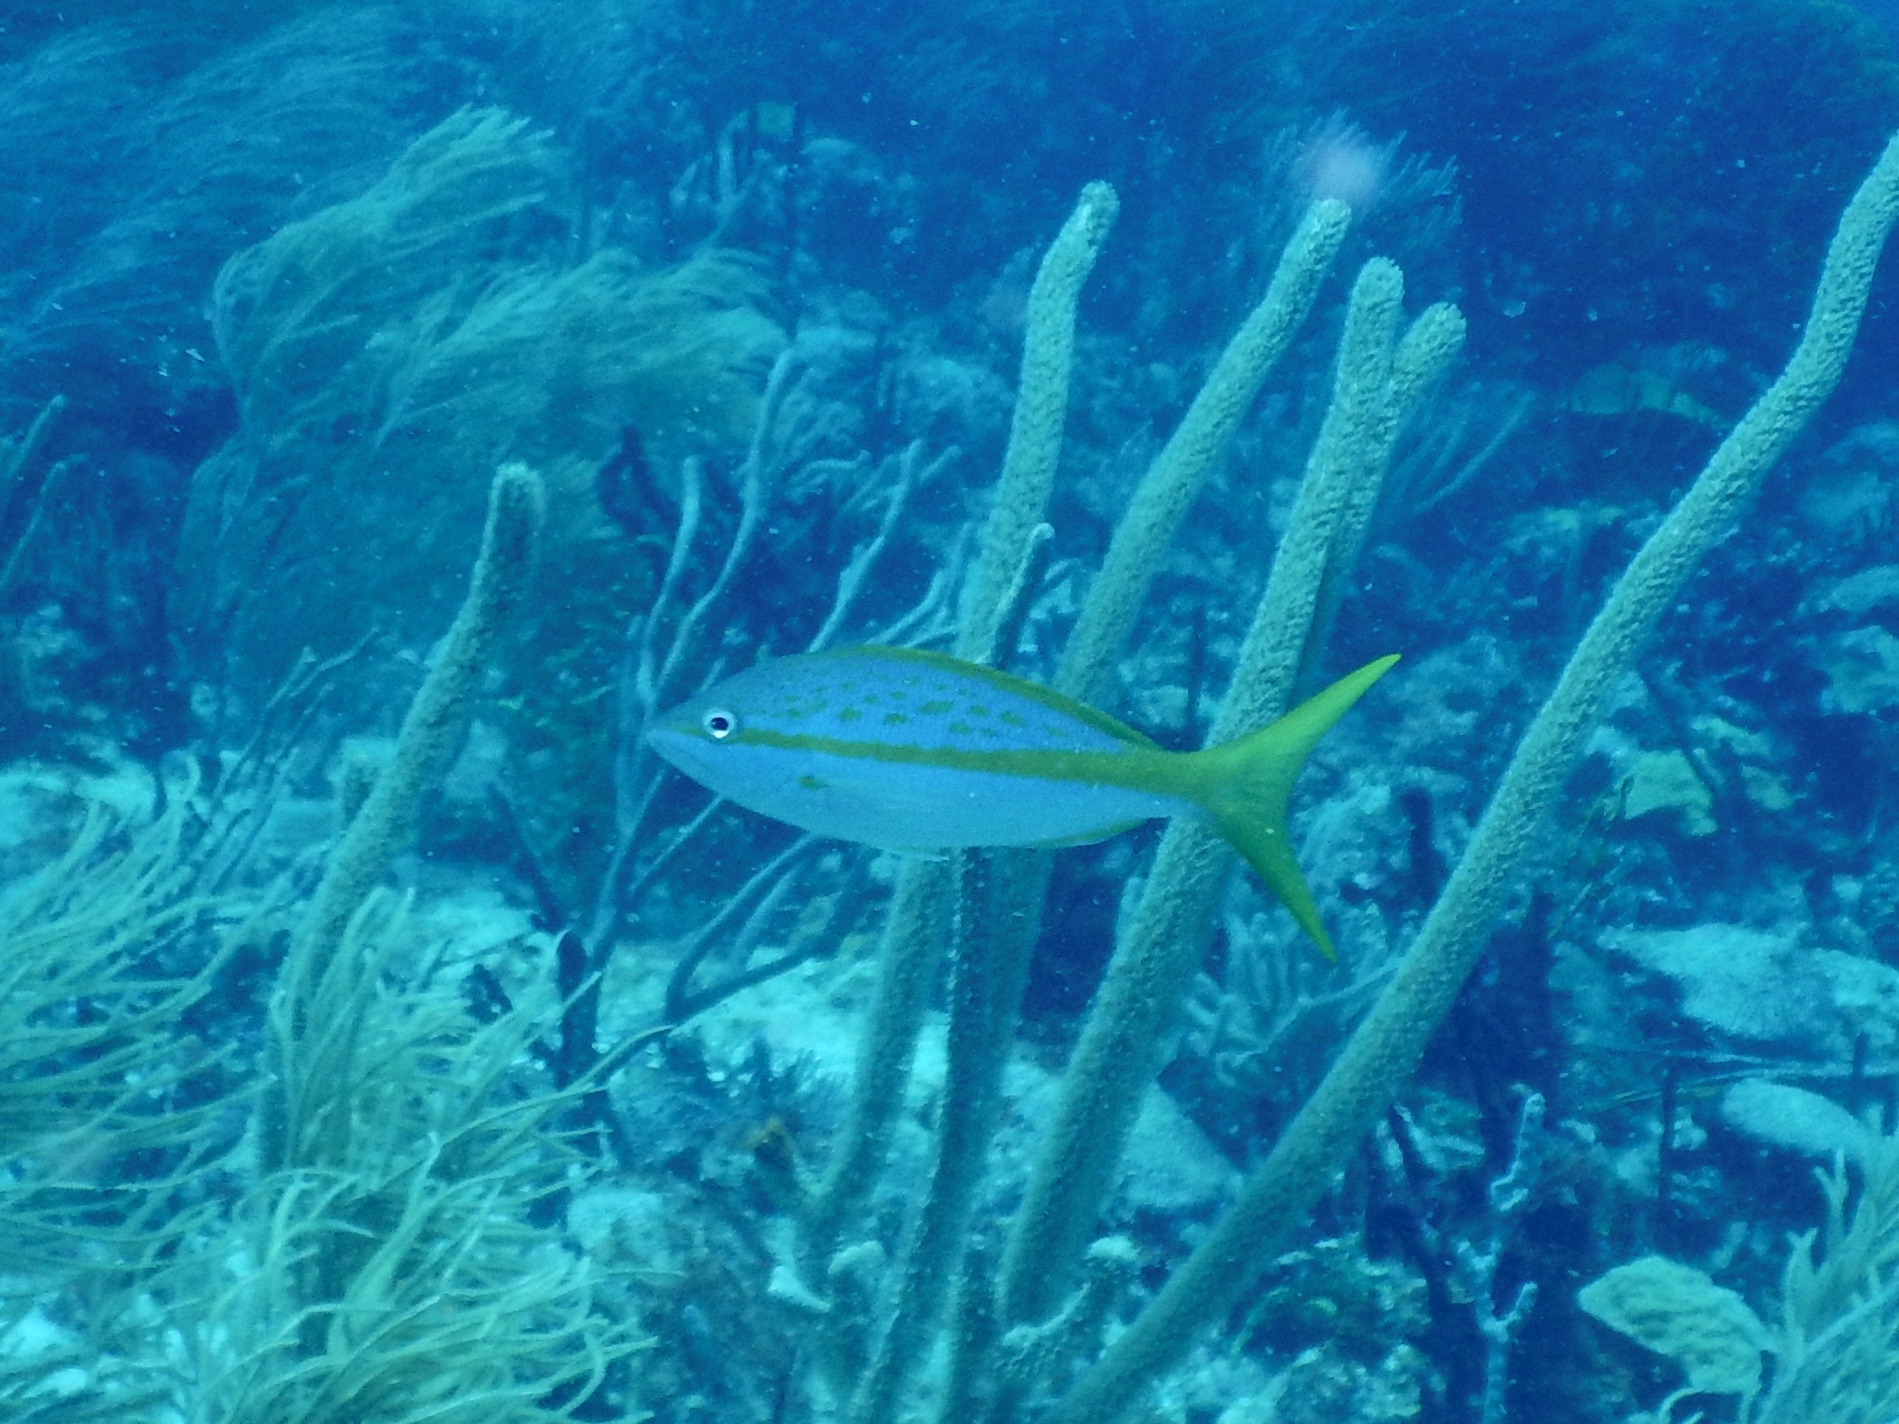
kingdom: Animalia
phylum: Chordata
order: Perciformes
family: Lutjanidae
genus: Ocyurus
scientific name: Ocyurus chrysurus
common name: Yellowtail snapper
